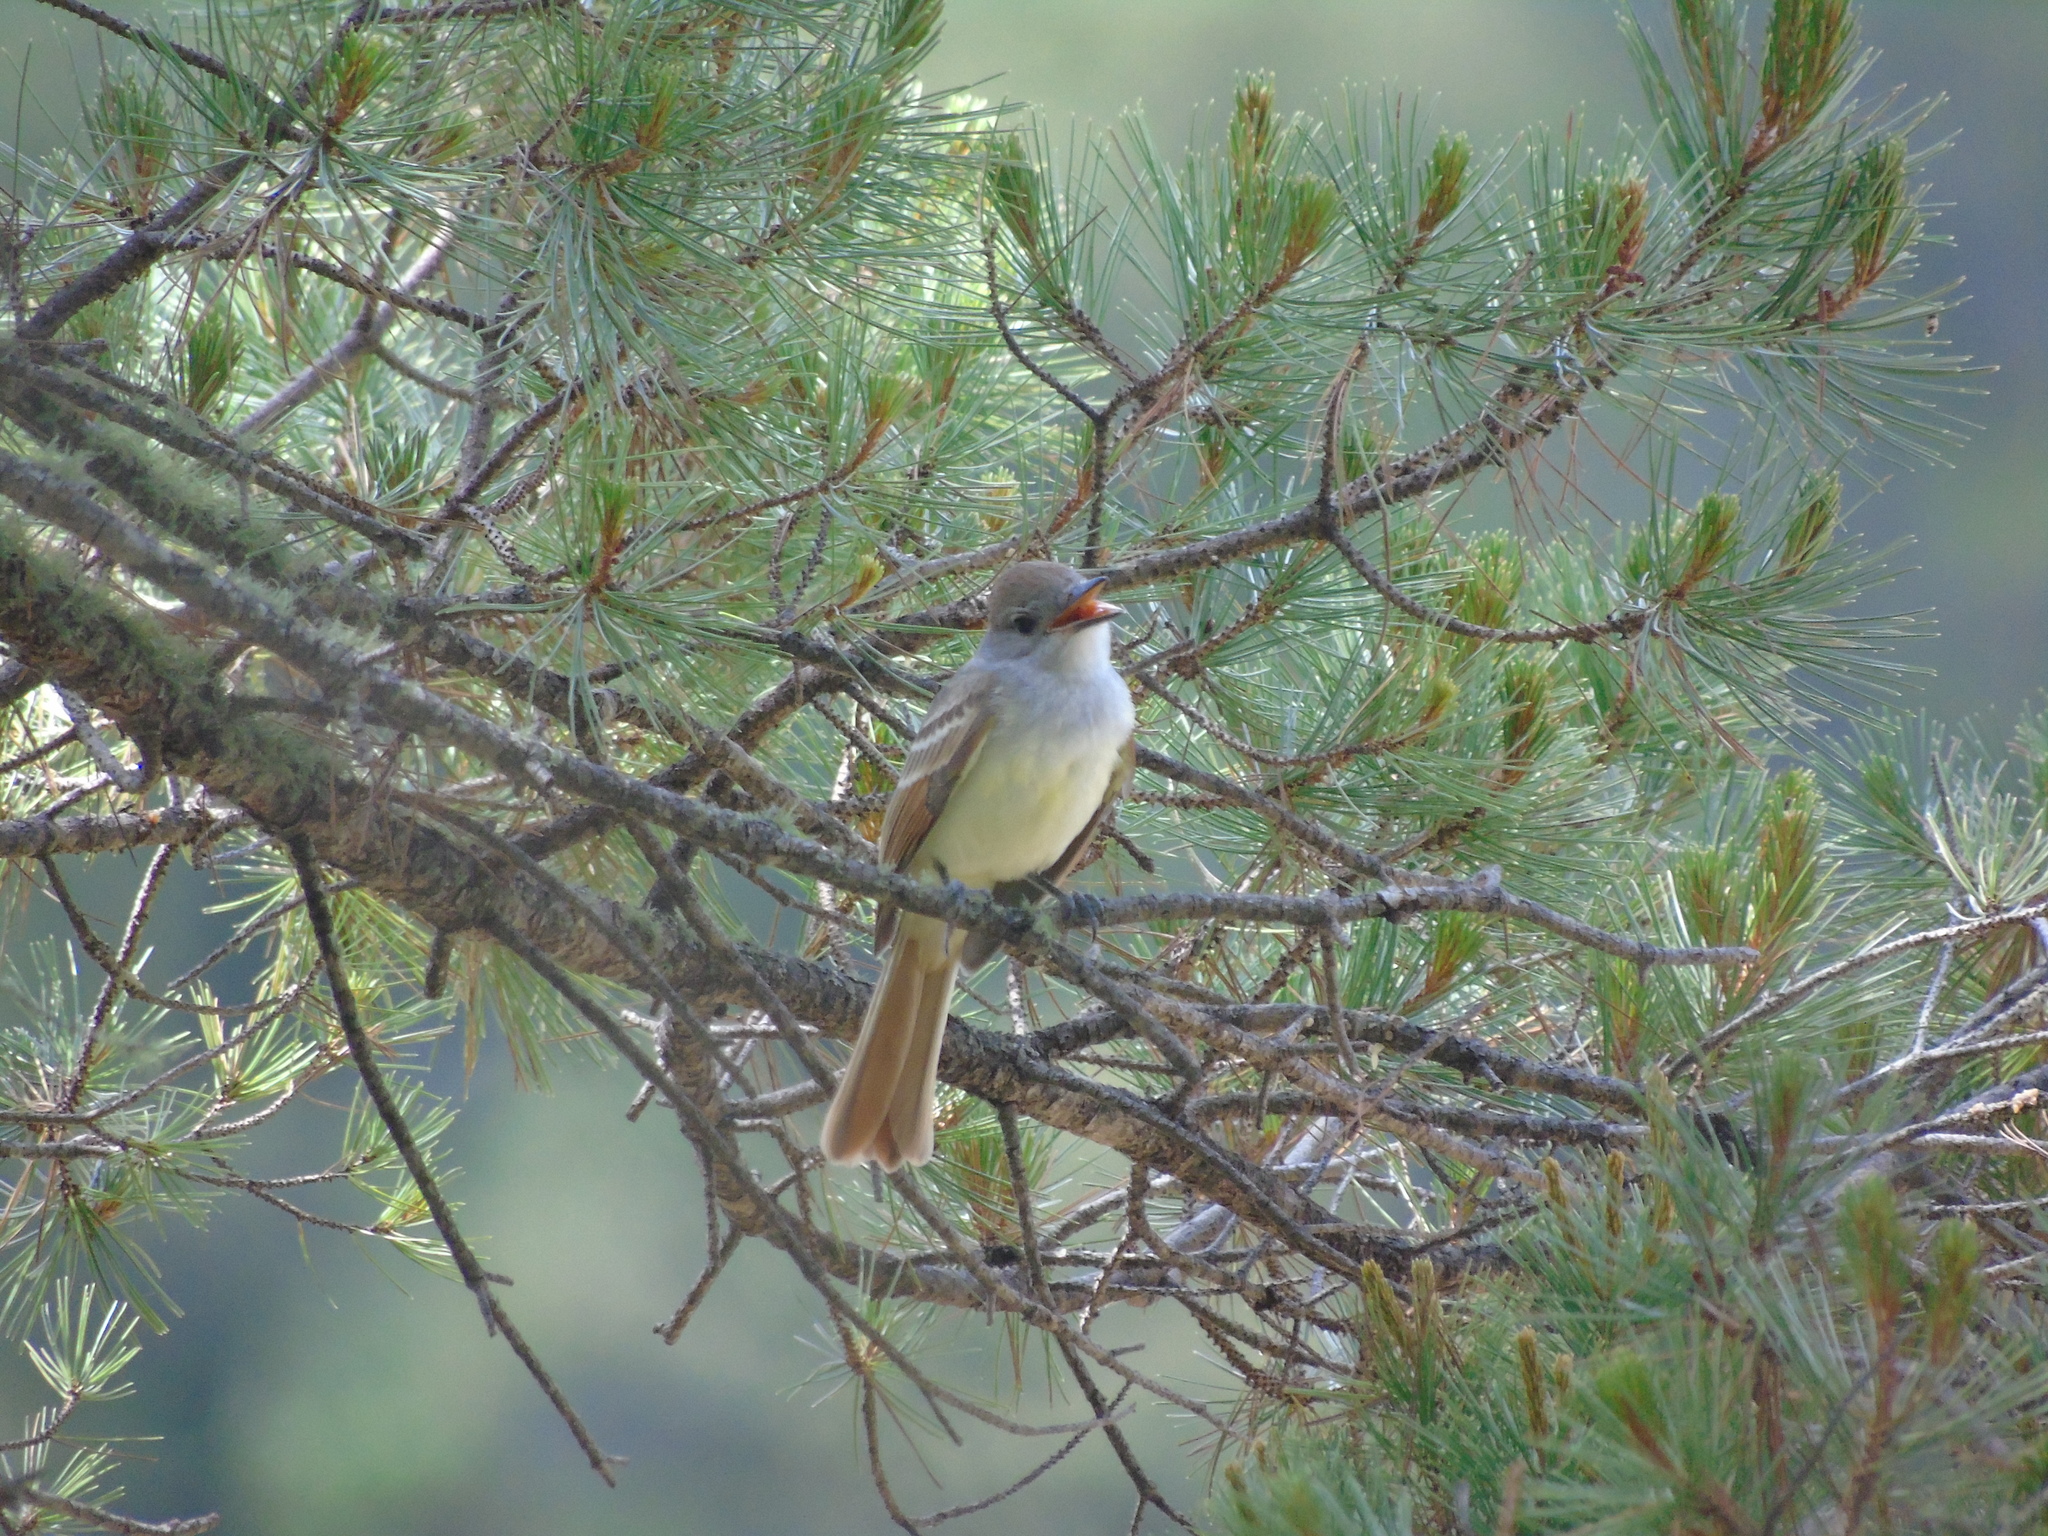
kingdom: Animalia
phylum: Chordata
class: Aves
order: Passeriformes
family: Tyrannidae
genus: Myiarchus
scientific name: Myiarchus cinerascens
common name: Ash-throated flycatcher
